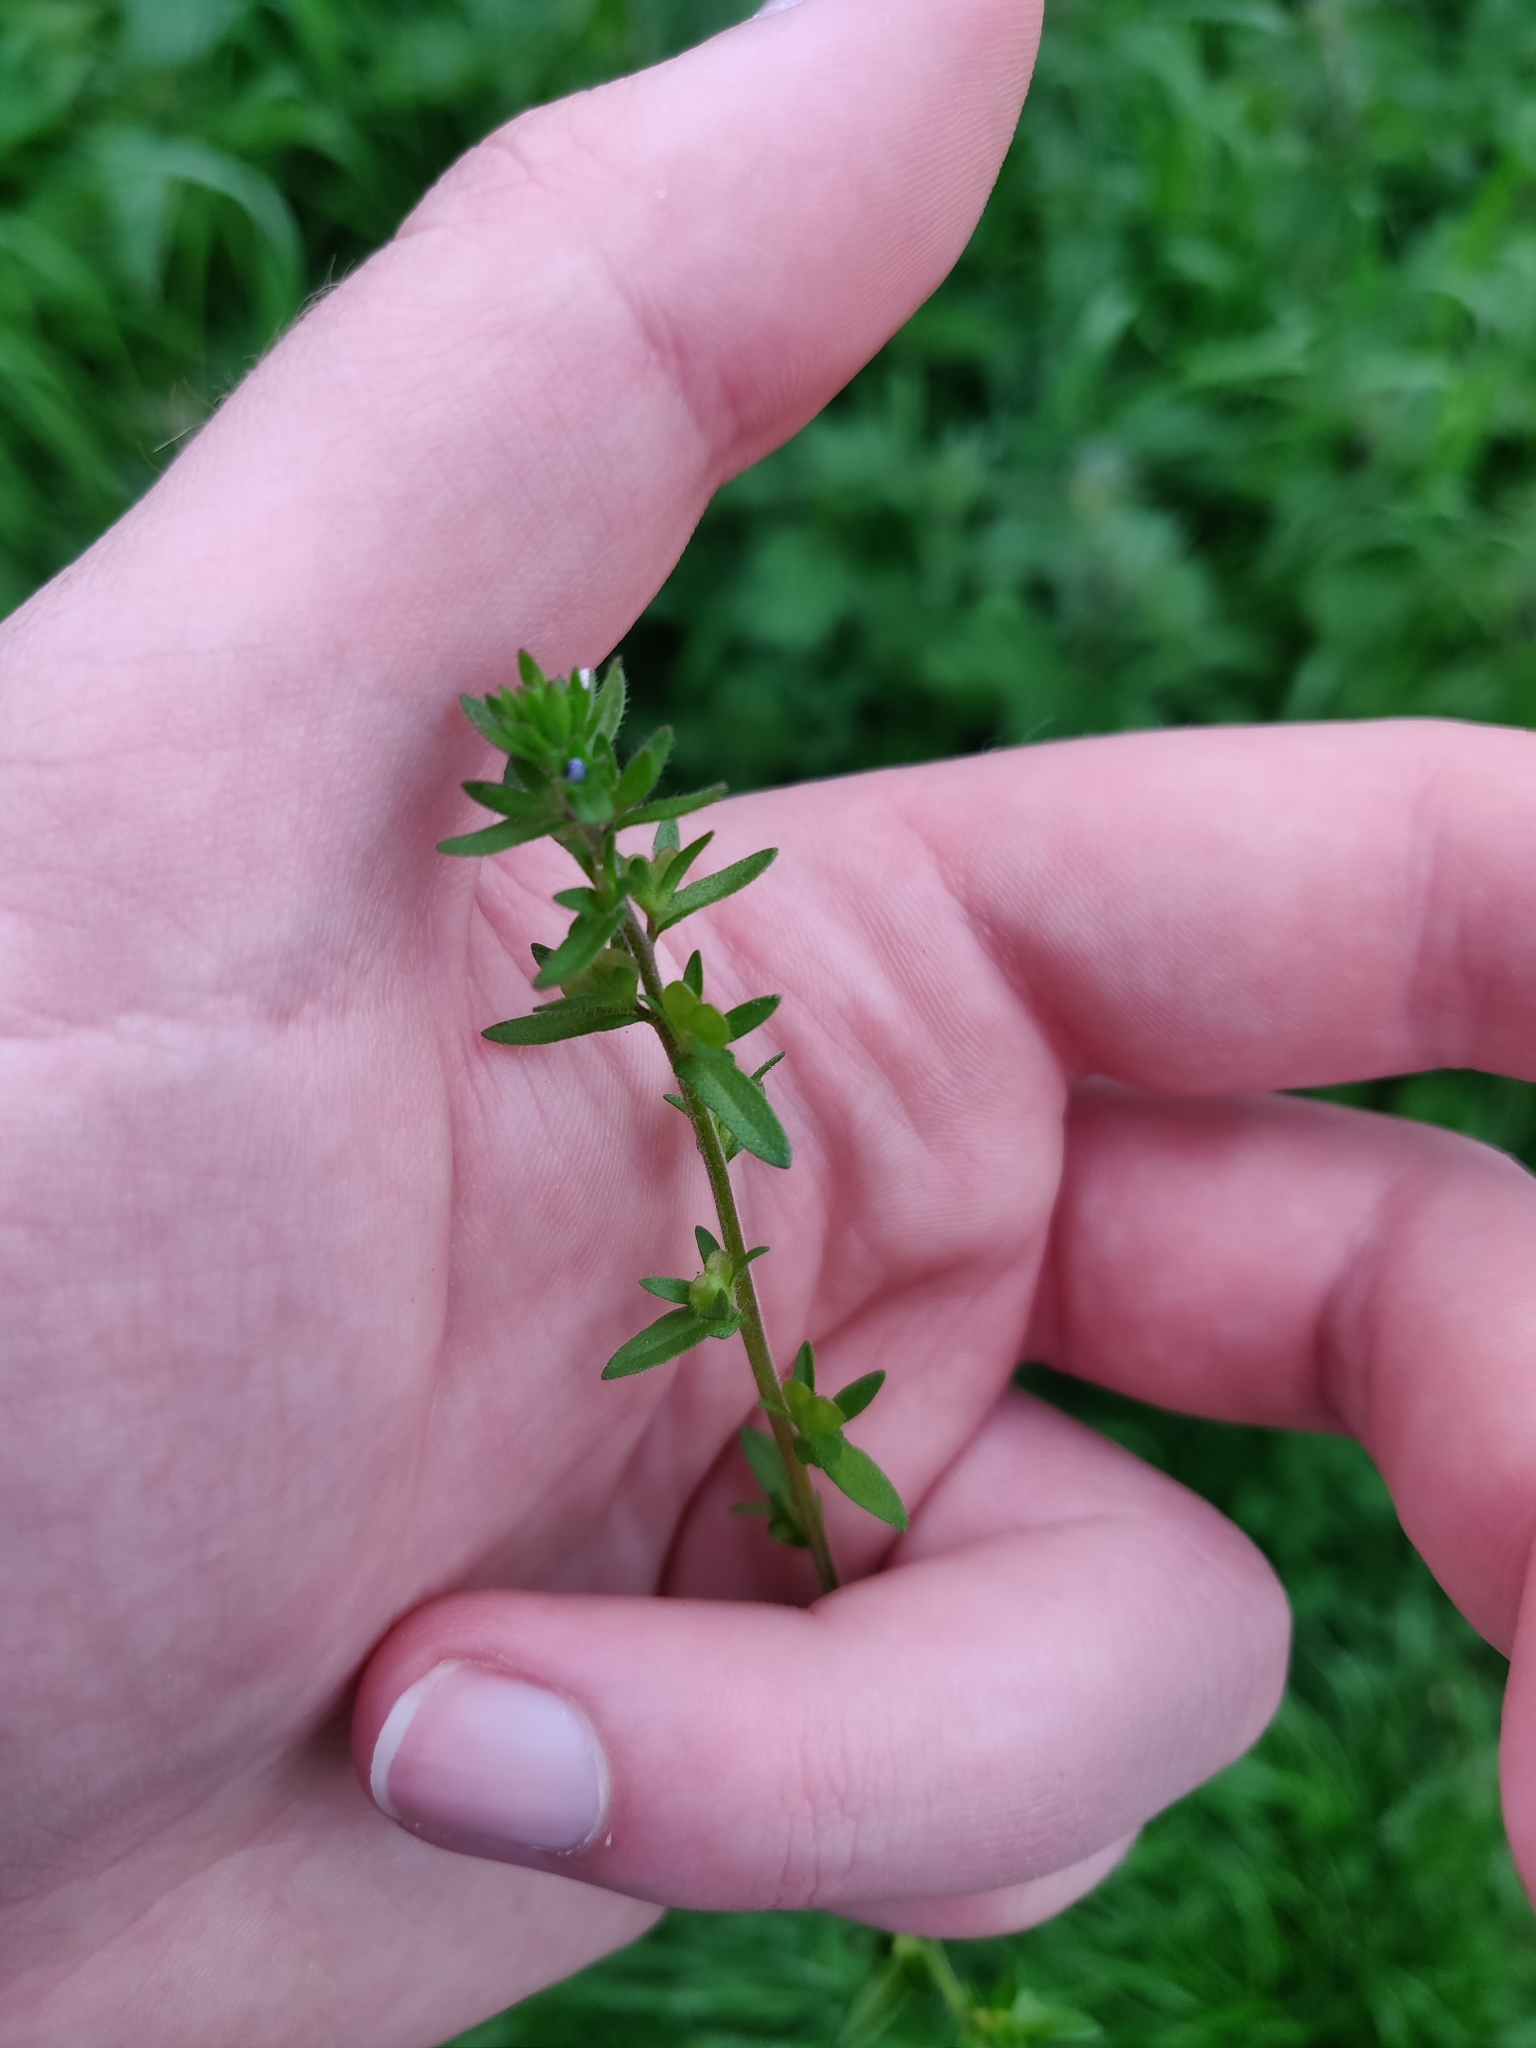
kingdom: Plantae
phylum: Tracheophyta
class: Magnoliopsida
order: Lamiales
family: Plantaginaceae
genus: Veronica
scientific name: Veronica arvensis
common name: Corn speedwell
